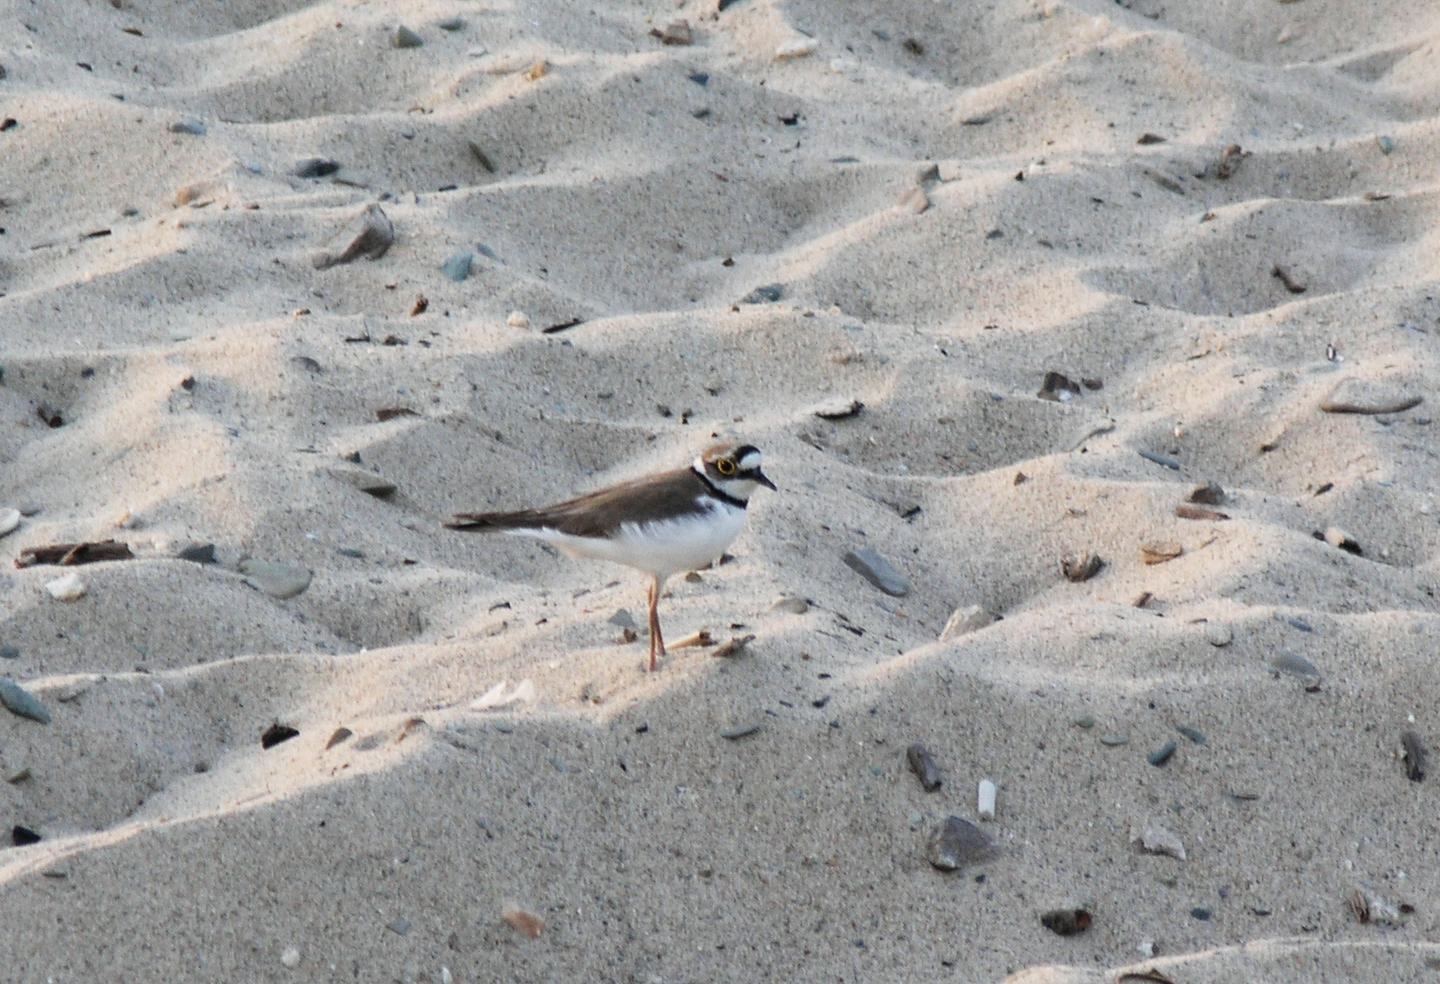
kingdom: Animalia
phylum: Chordata
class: Aves
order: Charadriiformes
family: Charadriidae
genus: Charadrius
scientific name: Charadrius dubius
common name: Little ringed plover
